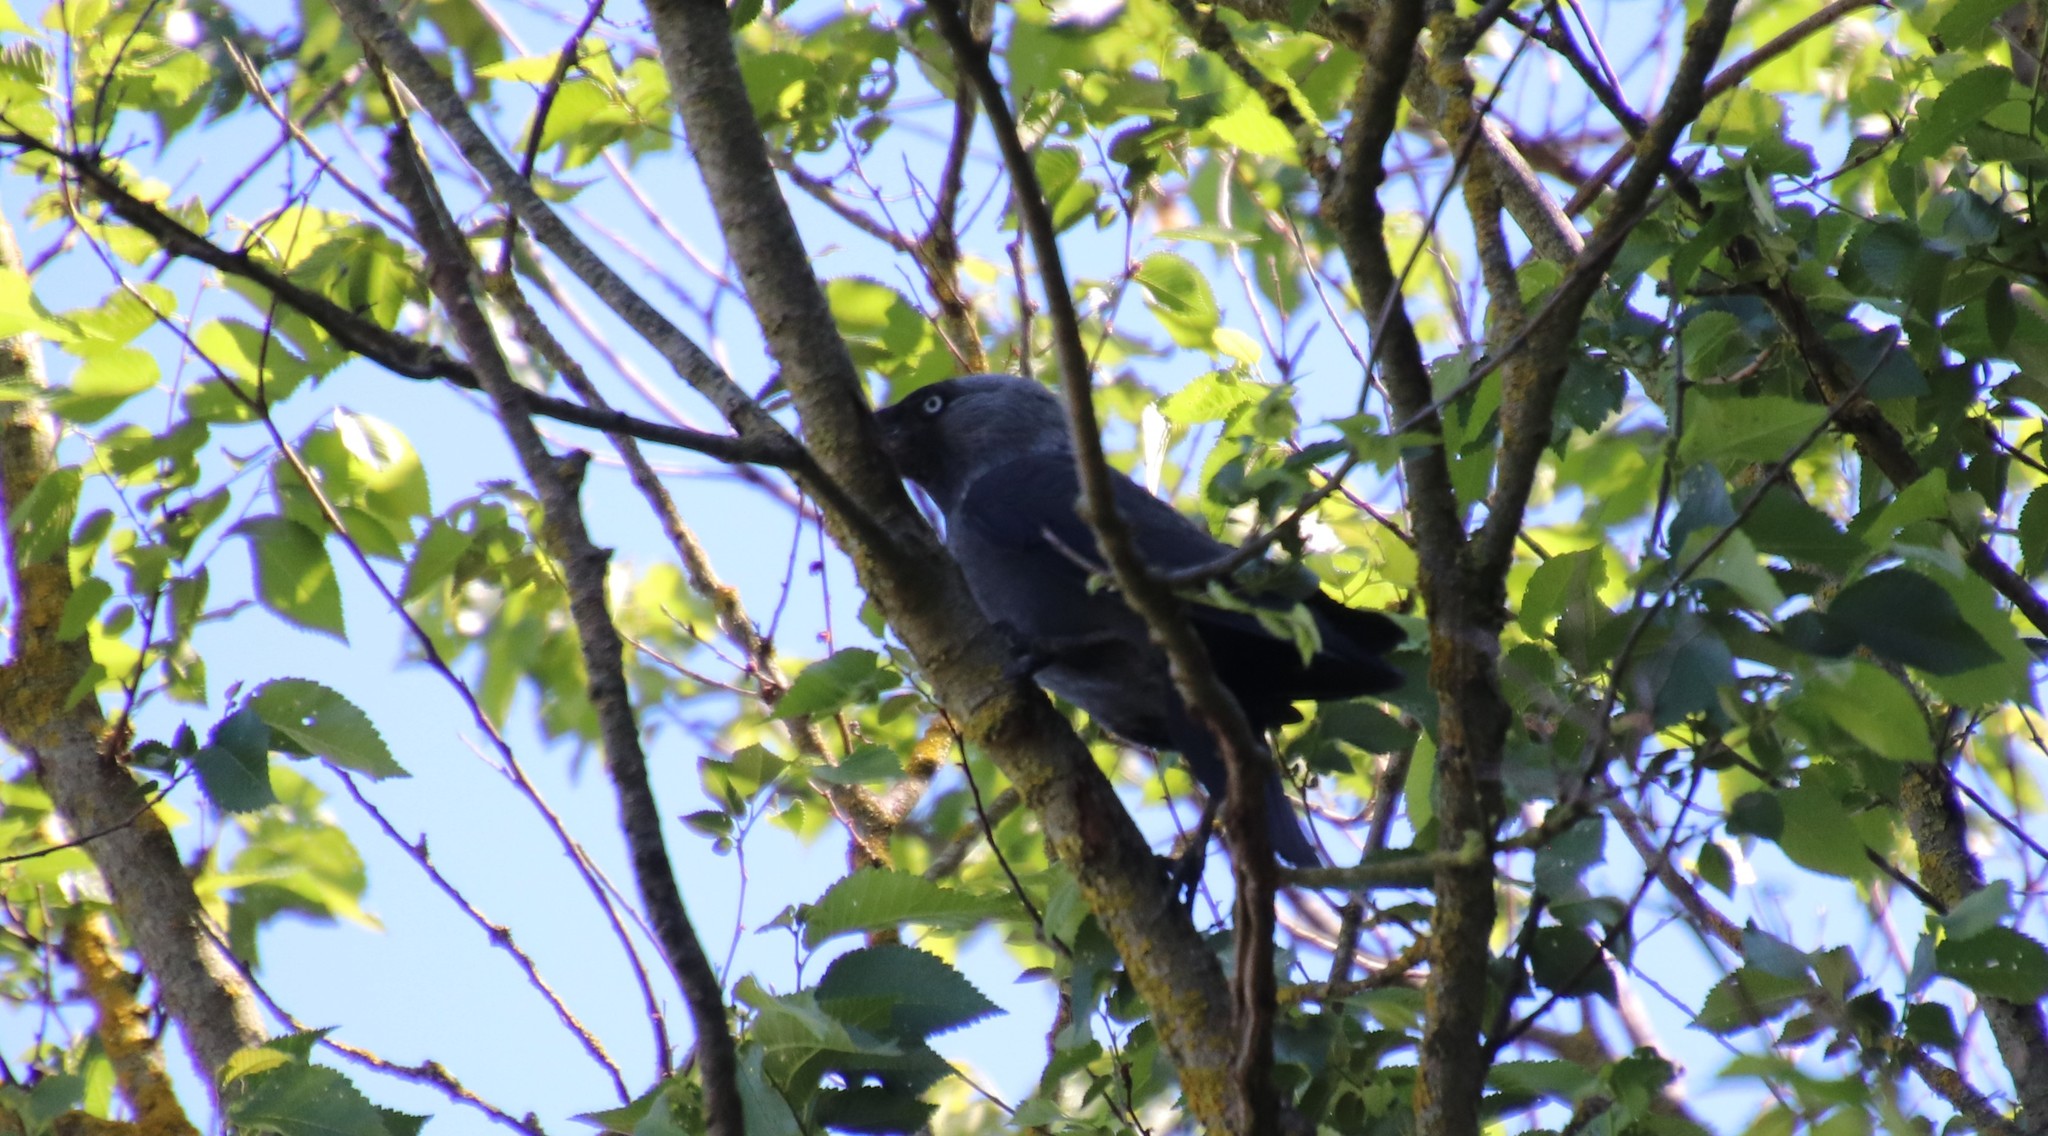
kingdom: Animalia
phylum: Chordata
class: Aves
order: Passeriformes
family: Corvidae
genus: Coloeus
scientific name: Coloeus monedula
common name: Western jackdaw
